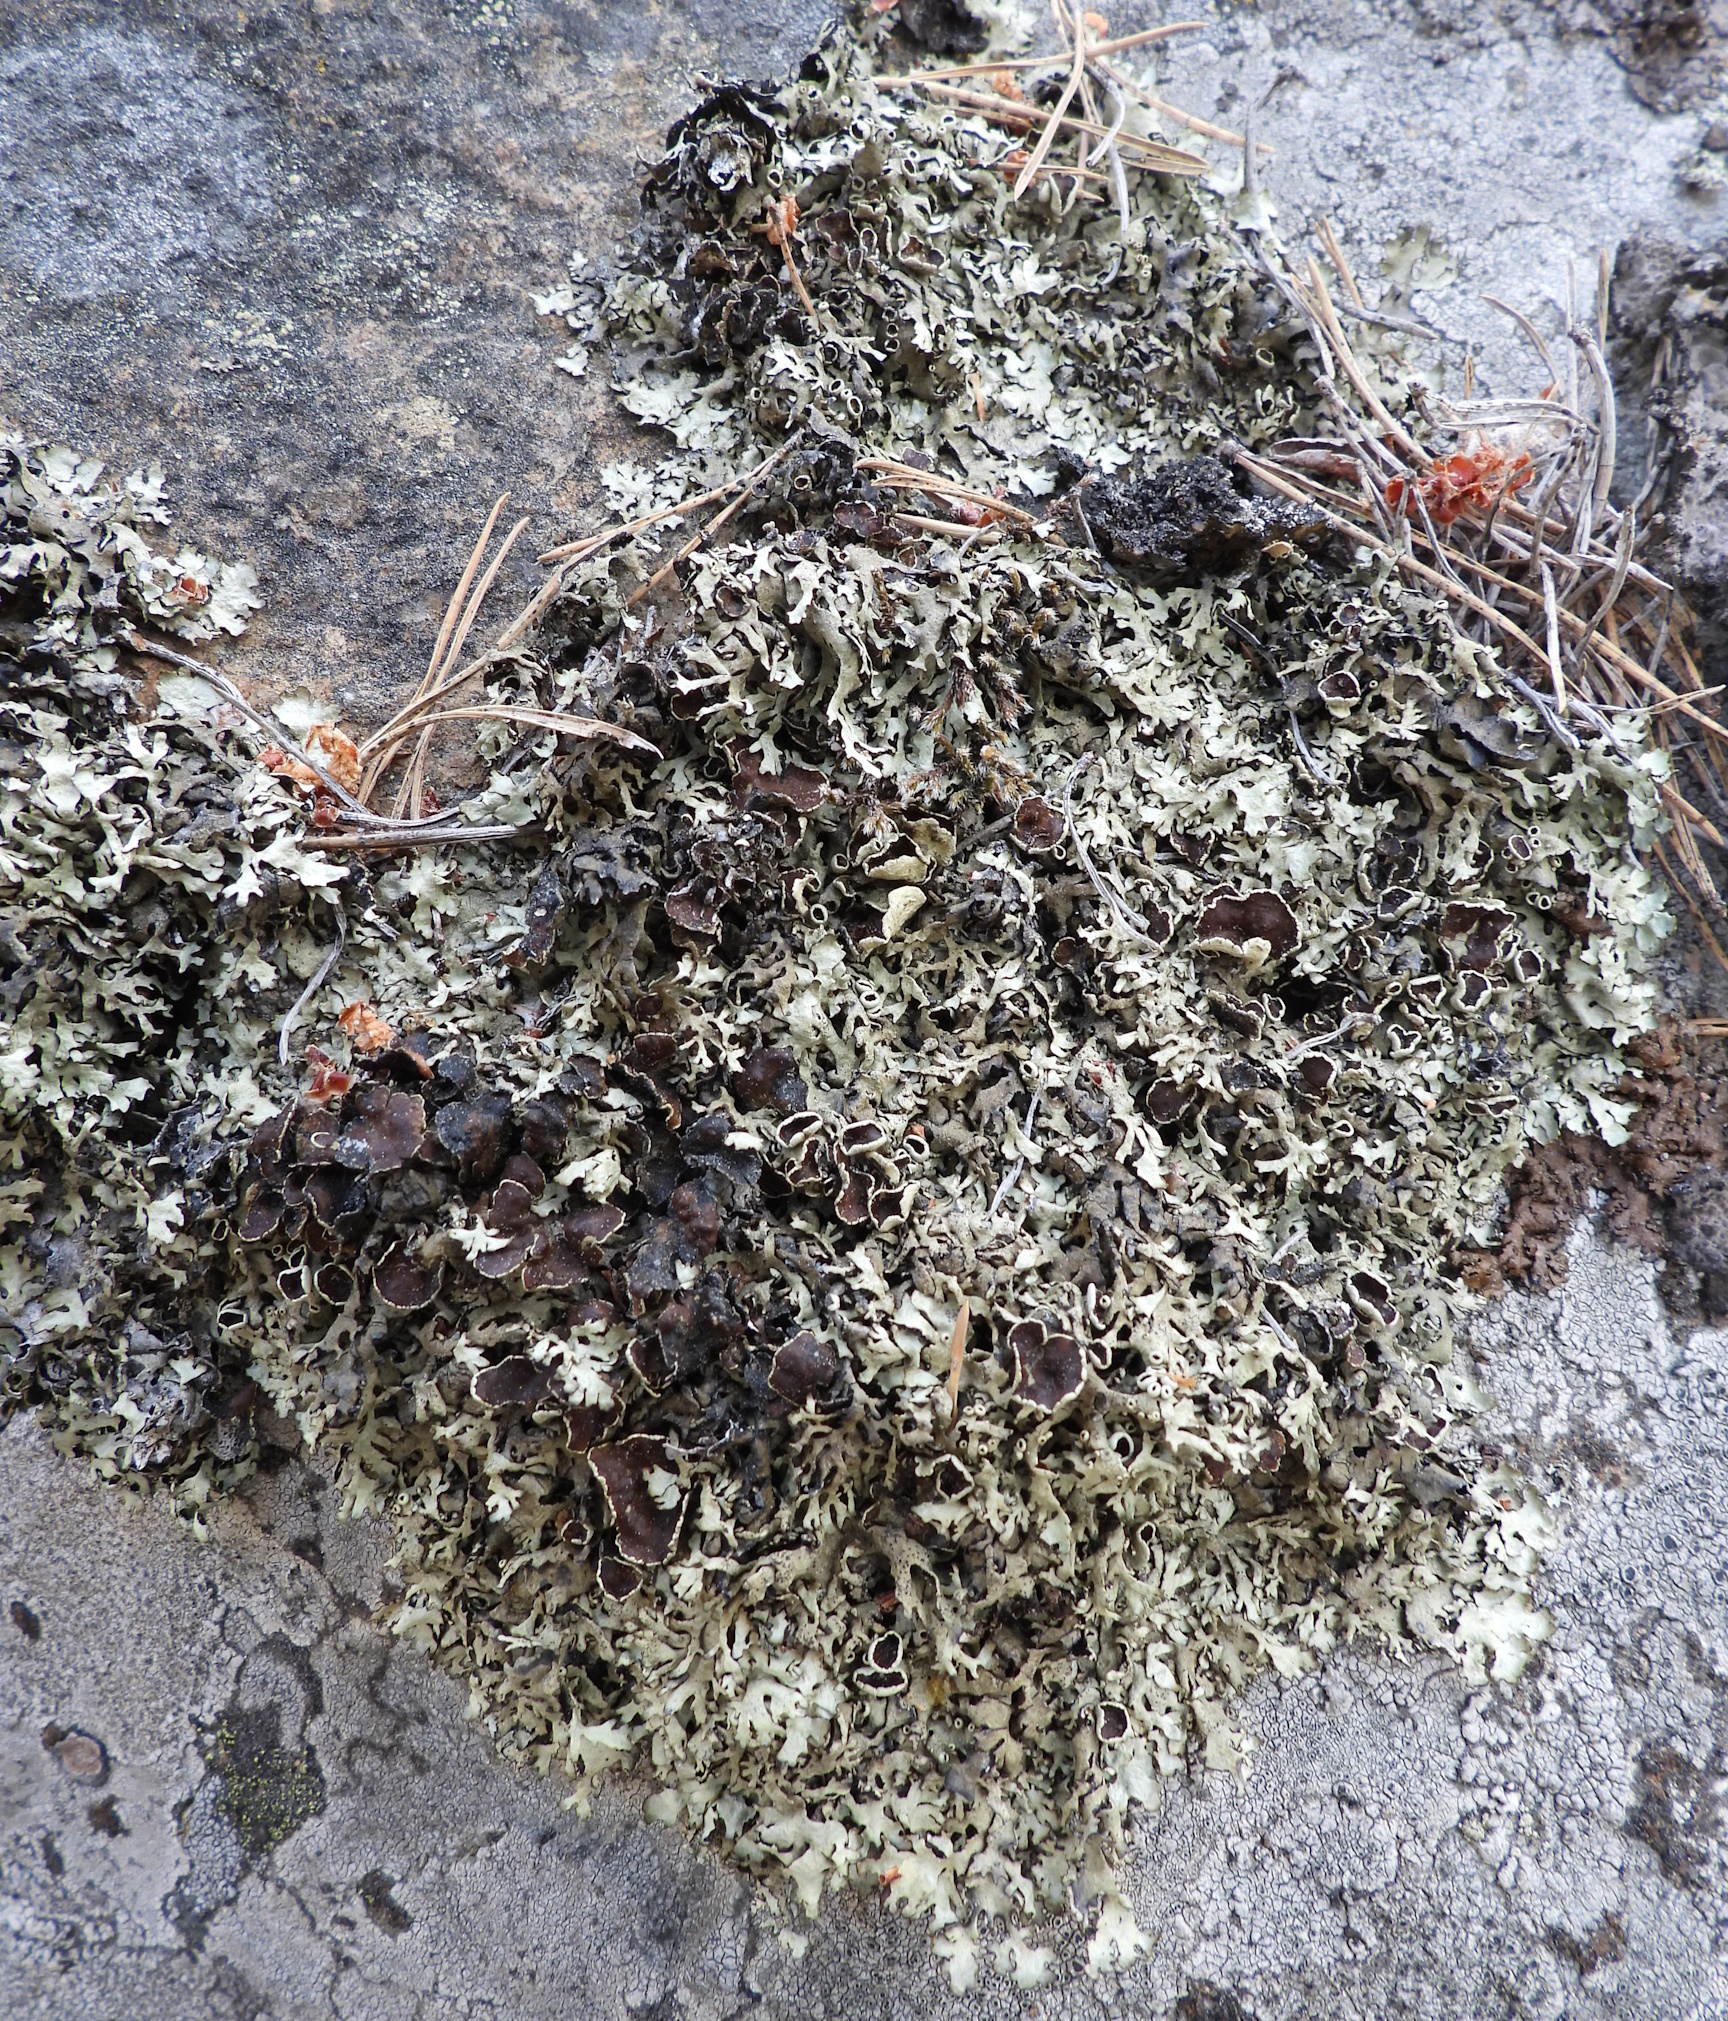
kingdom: Fungi
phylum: Ascomycota
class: Lecanoromycetes
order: Lecanorales
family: Parmeliaceae
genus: Xanthoparmelia
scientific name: Xanthoparmelia stenophylla
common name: Shingled rock shield
